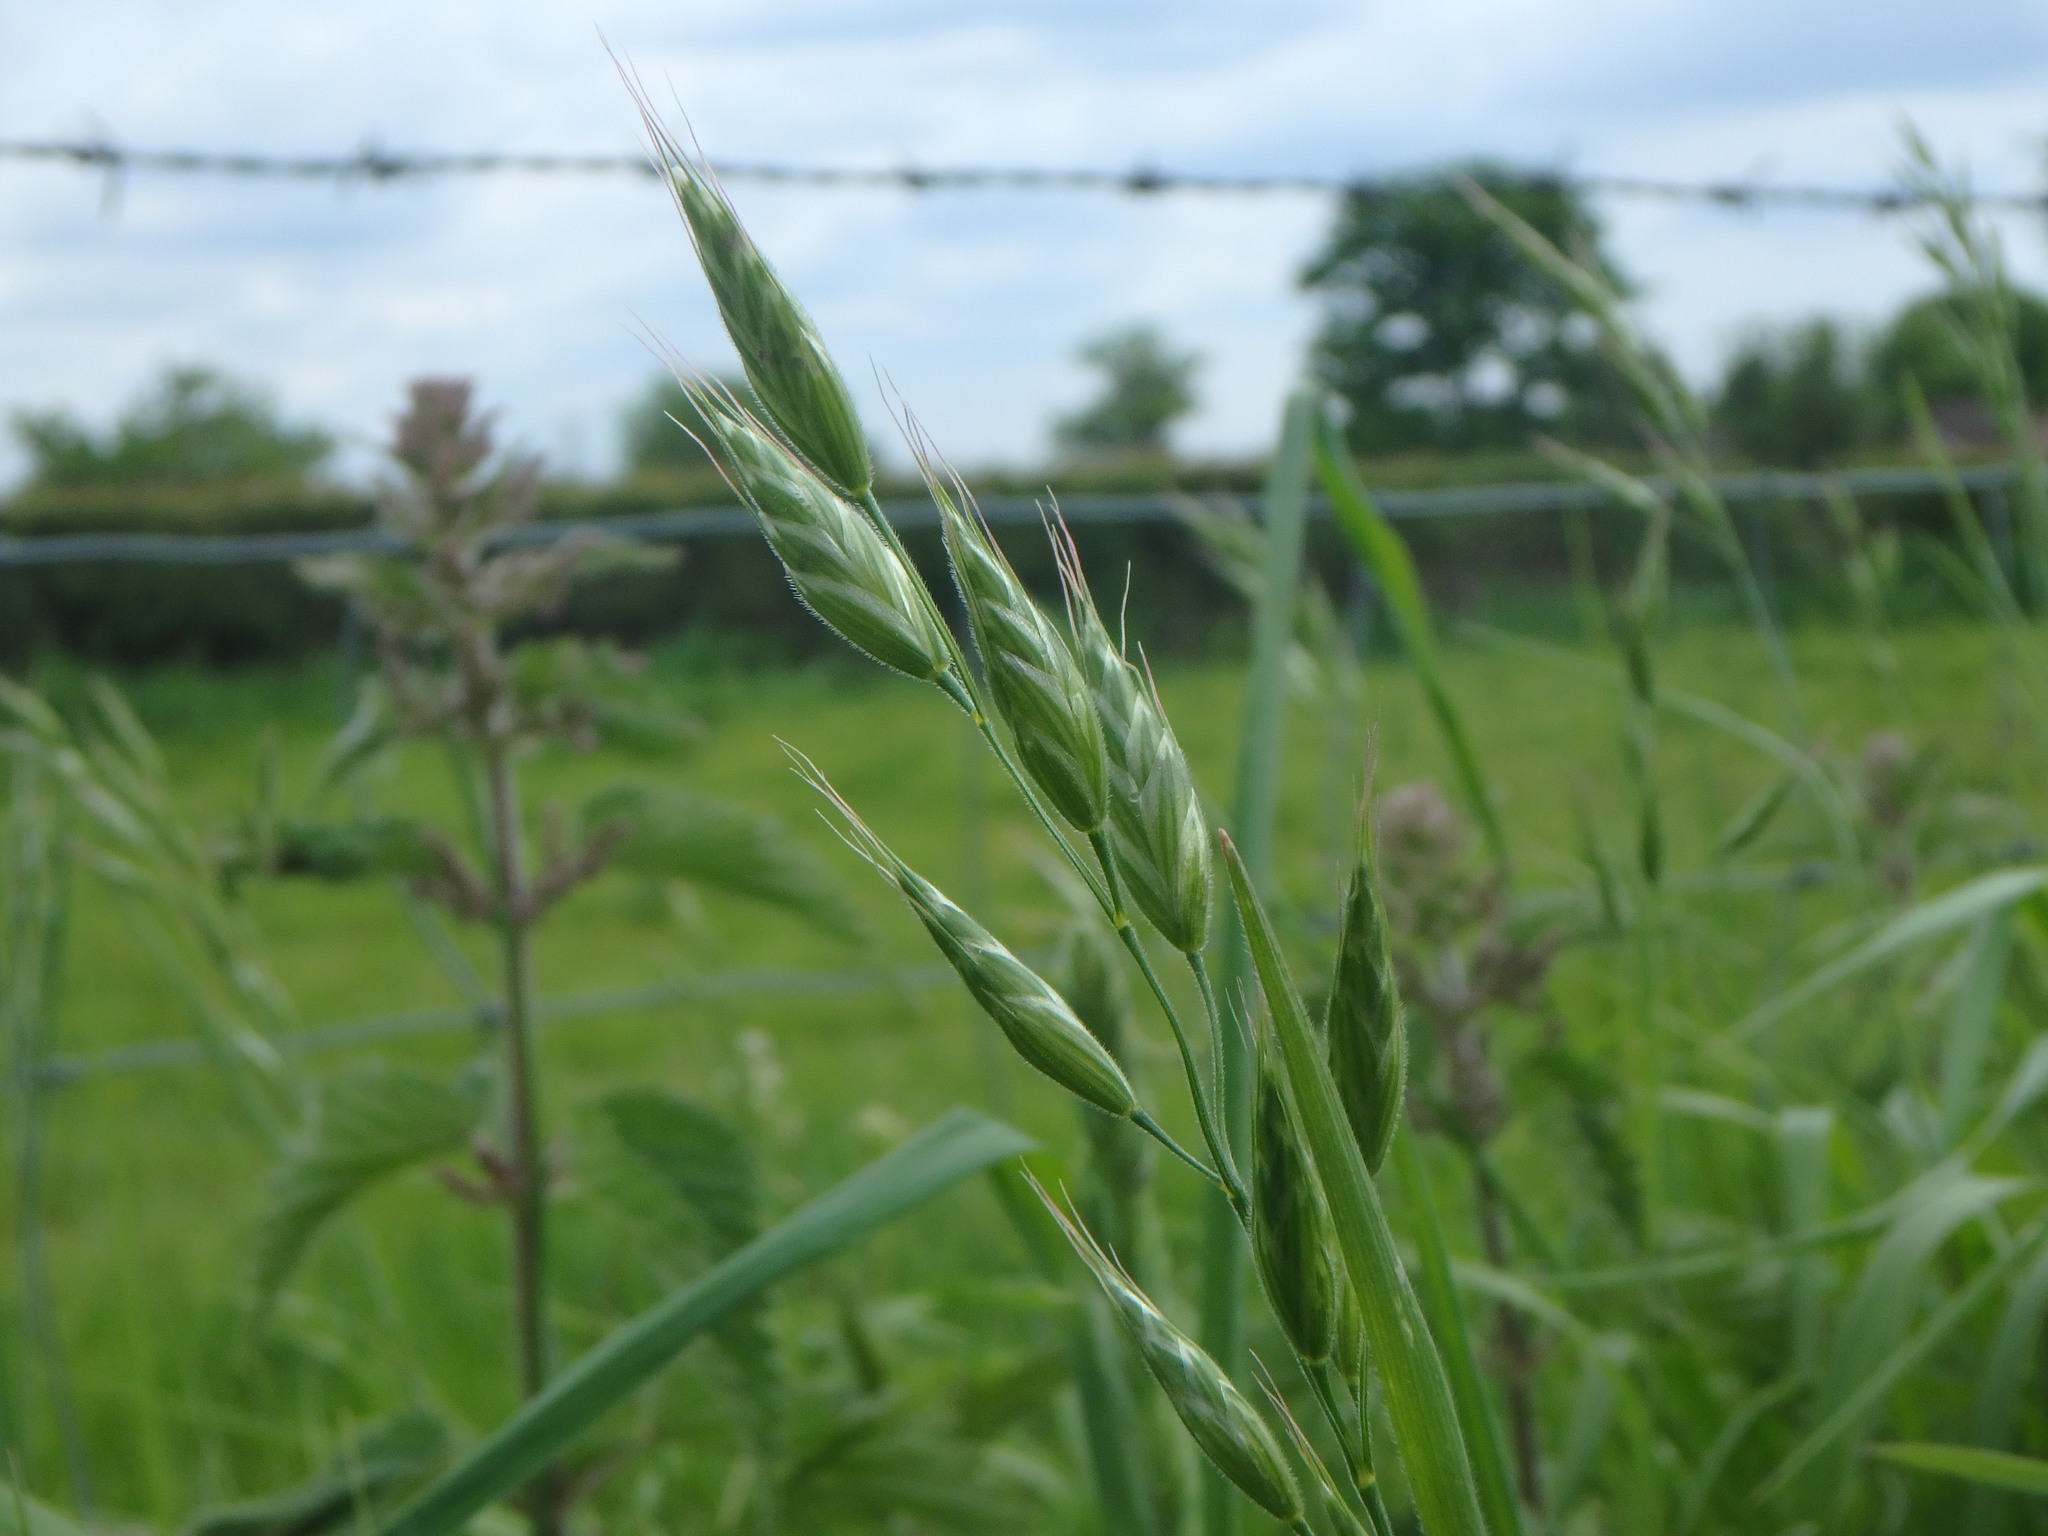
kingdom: Plantae
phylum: Tracheophyta
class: Liliopsida
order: Poales
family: Poaceae
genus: Bromus
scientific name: Bromus hordeaceus
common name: Soft brome
